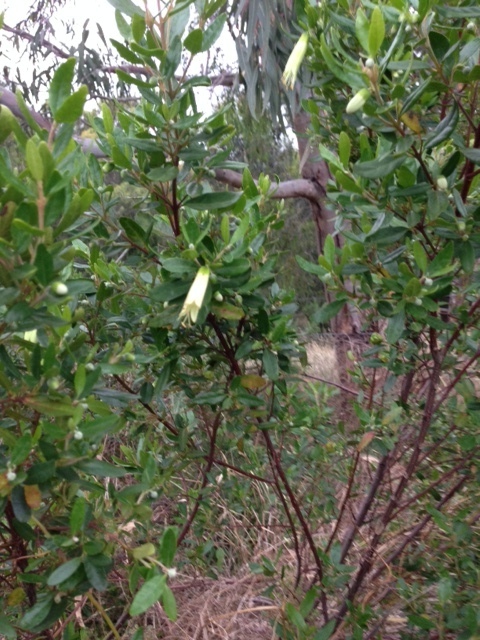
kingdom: Plantae
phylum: Tracheophyta
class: Magnoliopsida
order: Sapindales
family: Rutaceae
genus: Correa
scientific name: Correa glabra
